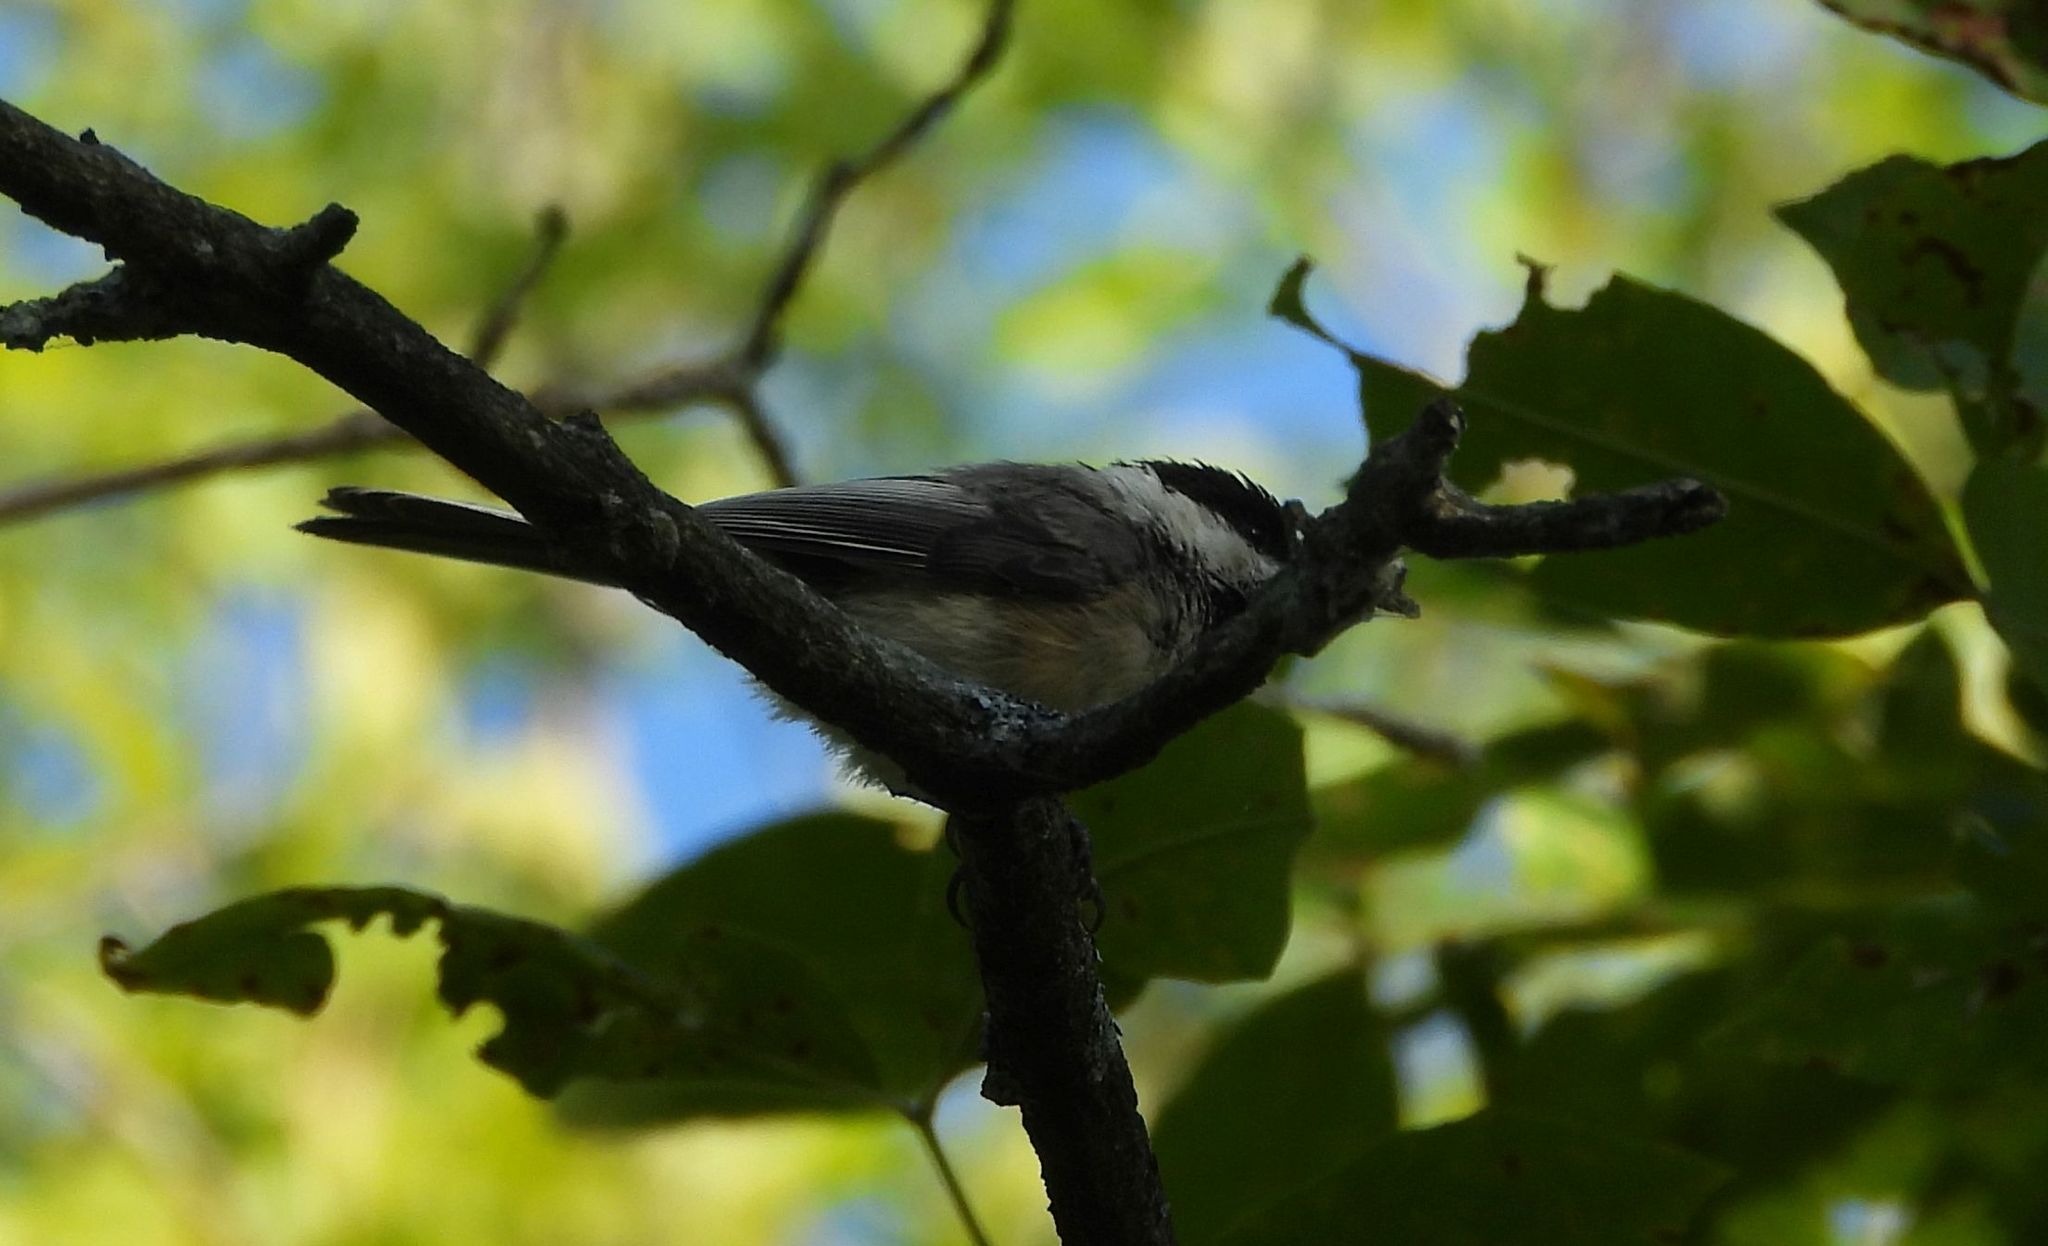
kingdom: Animalia
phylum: Chordata
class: Aves
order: Passeriformes
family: Paridae
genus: Poecile
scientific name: Poecile atricapillus
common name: Black-capped chickadee
